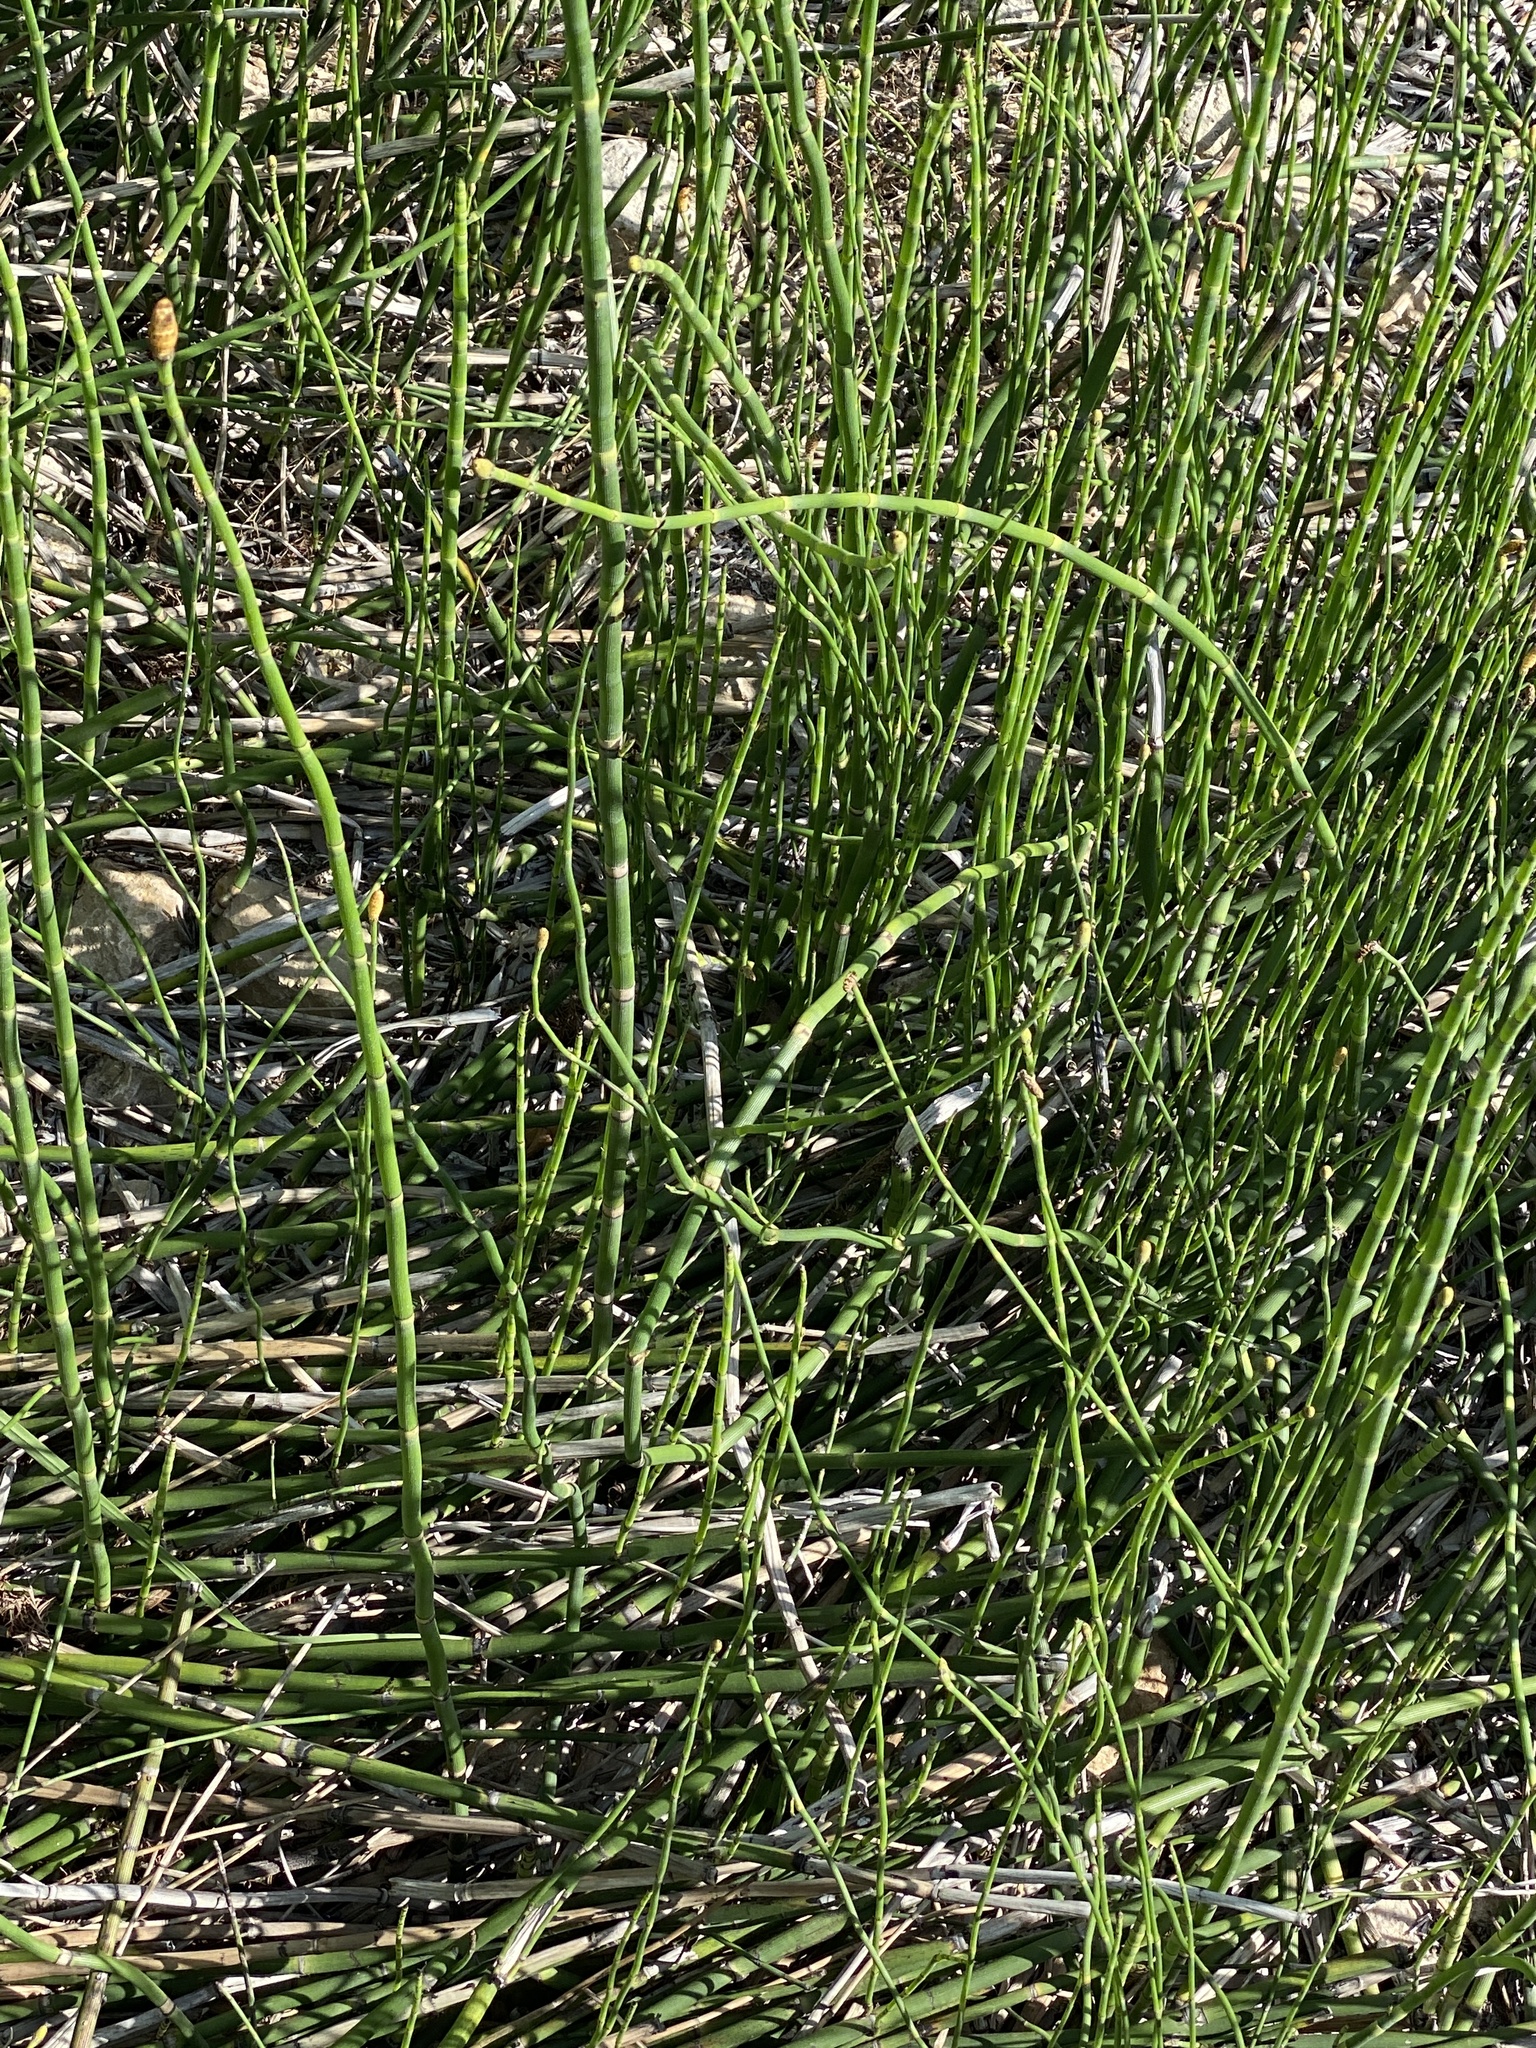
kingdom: Plantae
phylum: Tracheophyta
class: Polypodiopsida
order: Equisetales
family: Equisetaceae
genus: Equisetum
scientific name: Equisetum hyemale
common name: Rough horsetail
